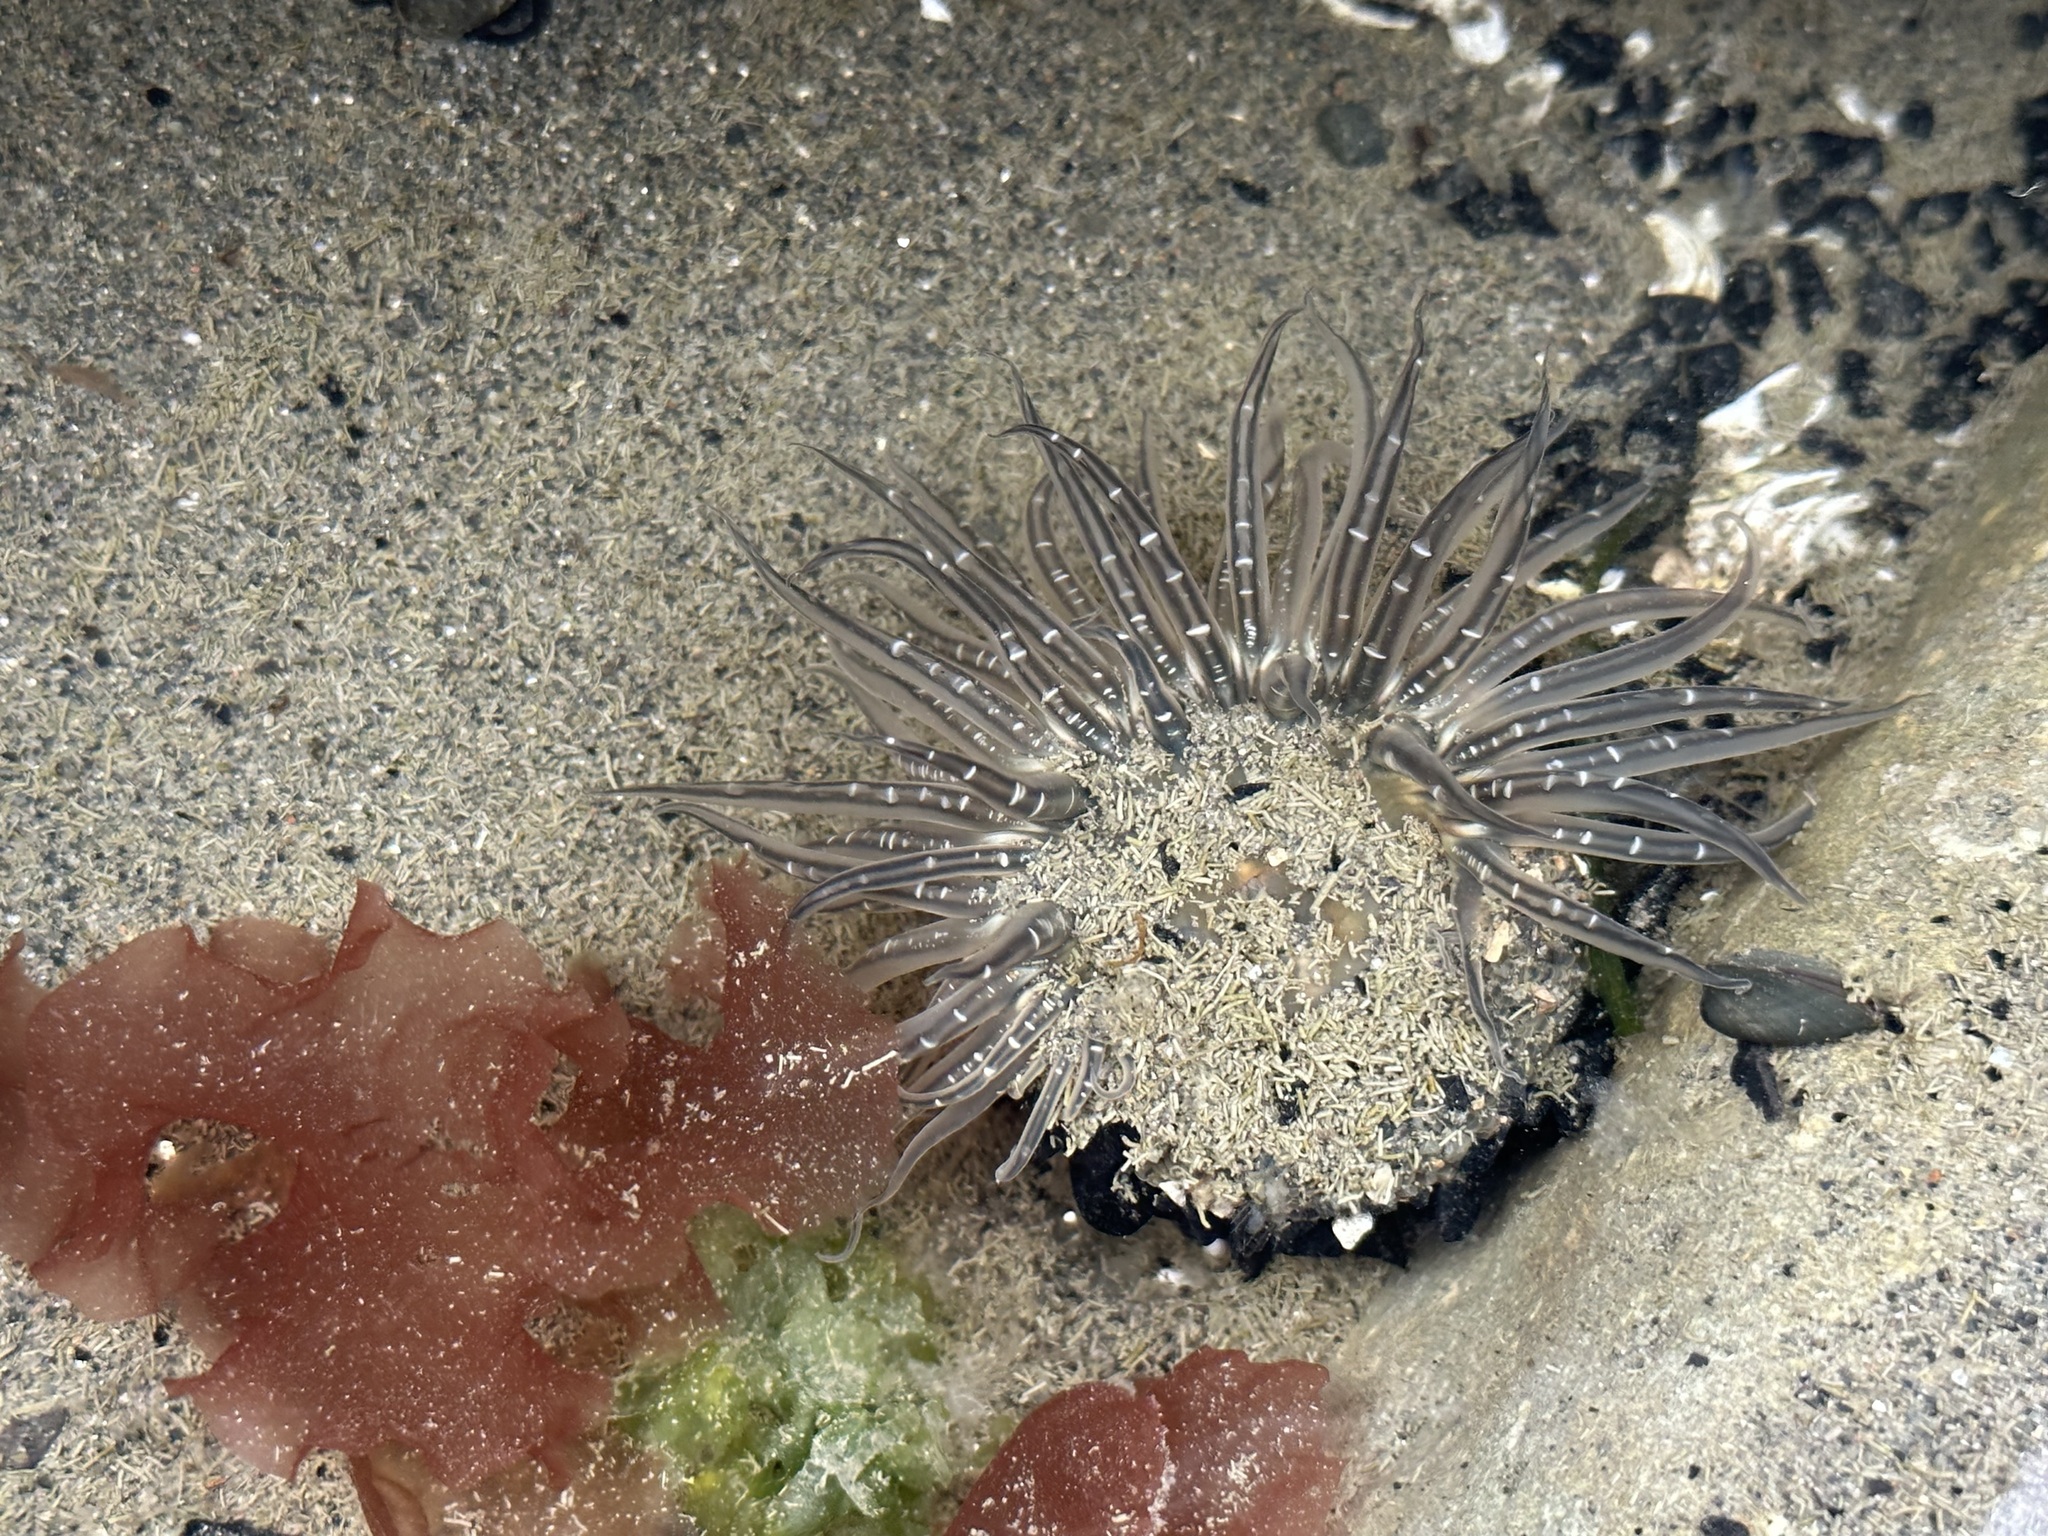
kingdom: Animalia
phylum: Cnidaria
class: Anthozoa
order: Actiniaria
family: Actiniidae
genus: Anthopleura
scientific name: Anthopleura artemisia
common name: Buried sea anemone
